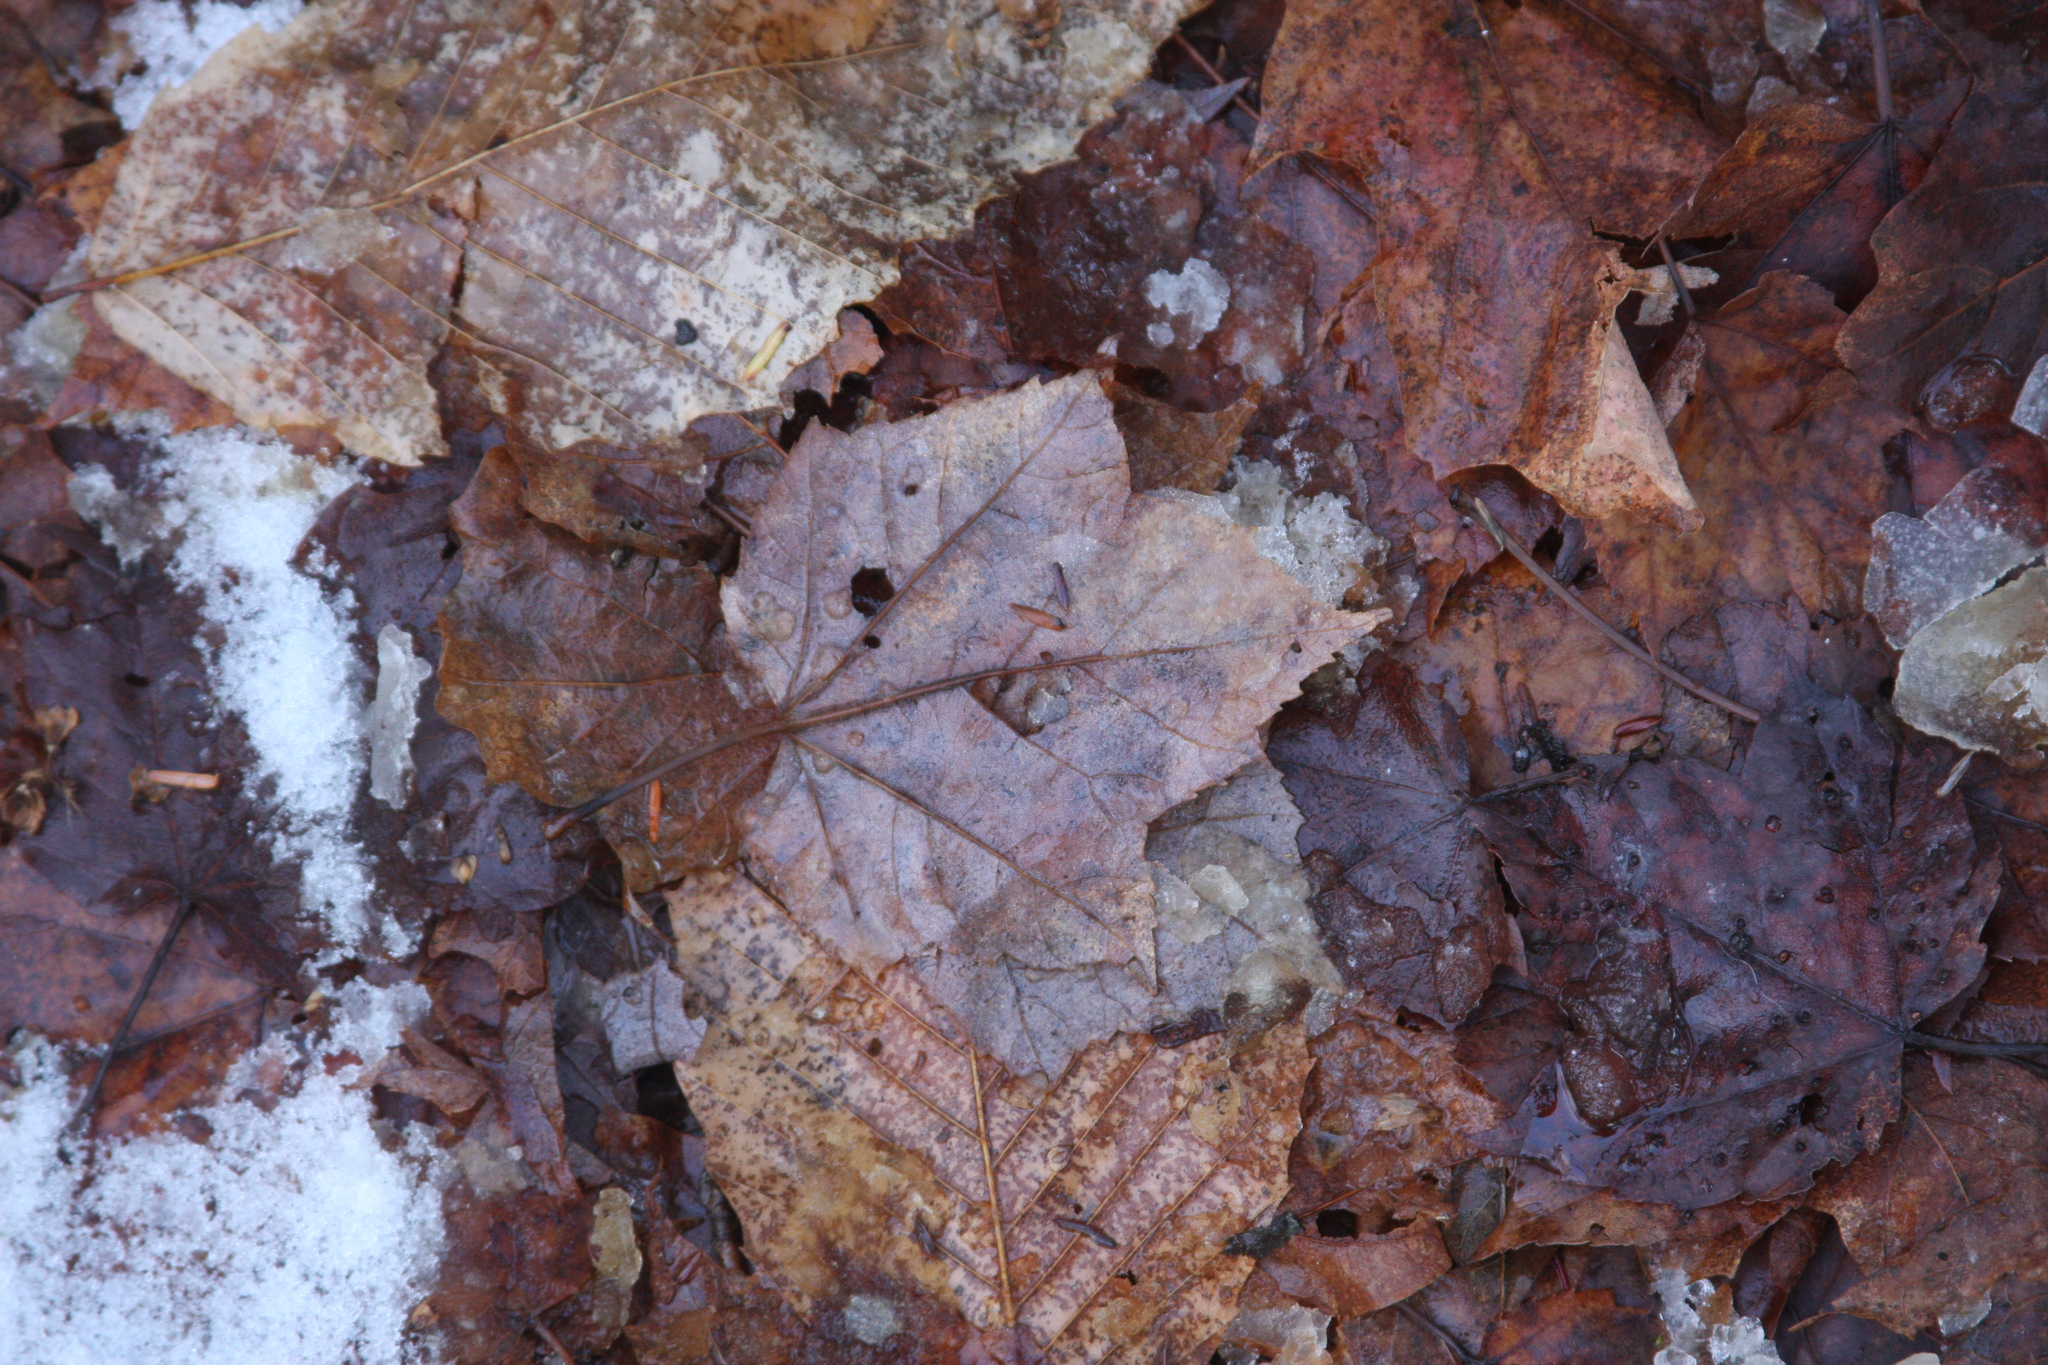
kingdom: Plantae
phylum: Tracheophyta
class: Magnoliopsida
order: Sapindales
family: Sapindaceae
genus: Acer
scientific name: Acer rubrum
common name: Red maple
